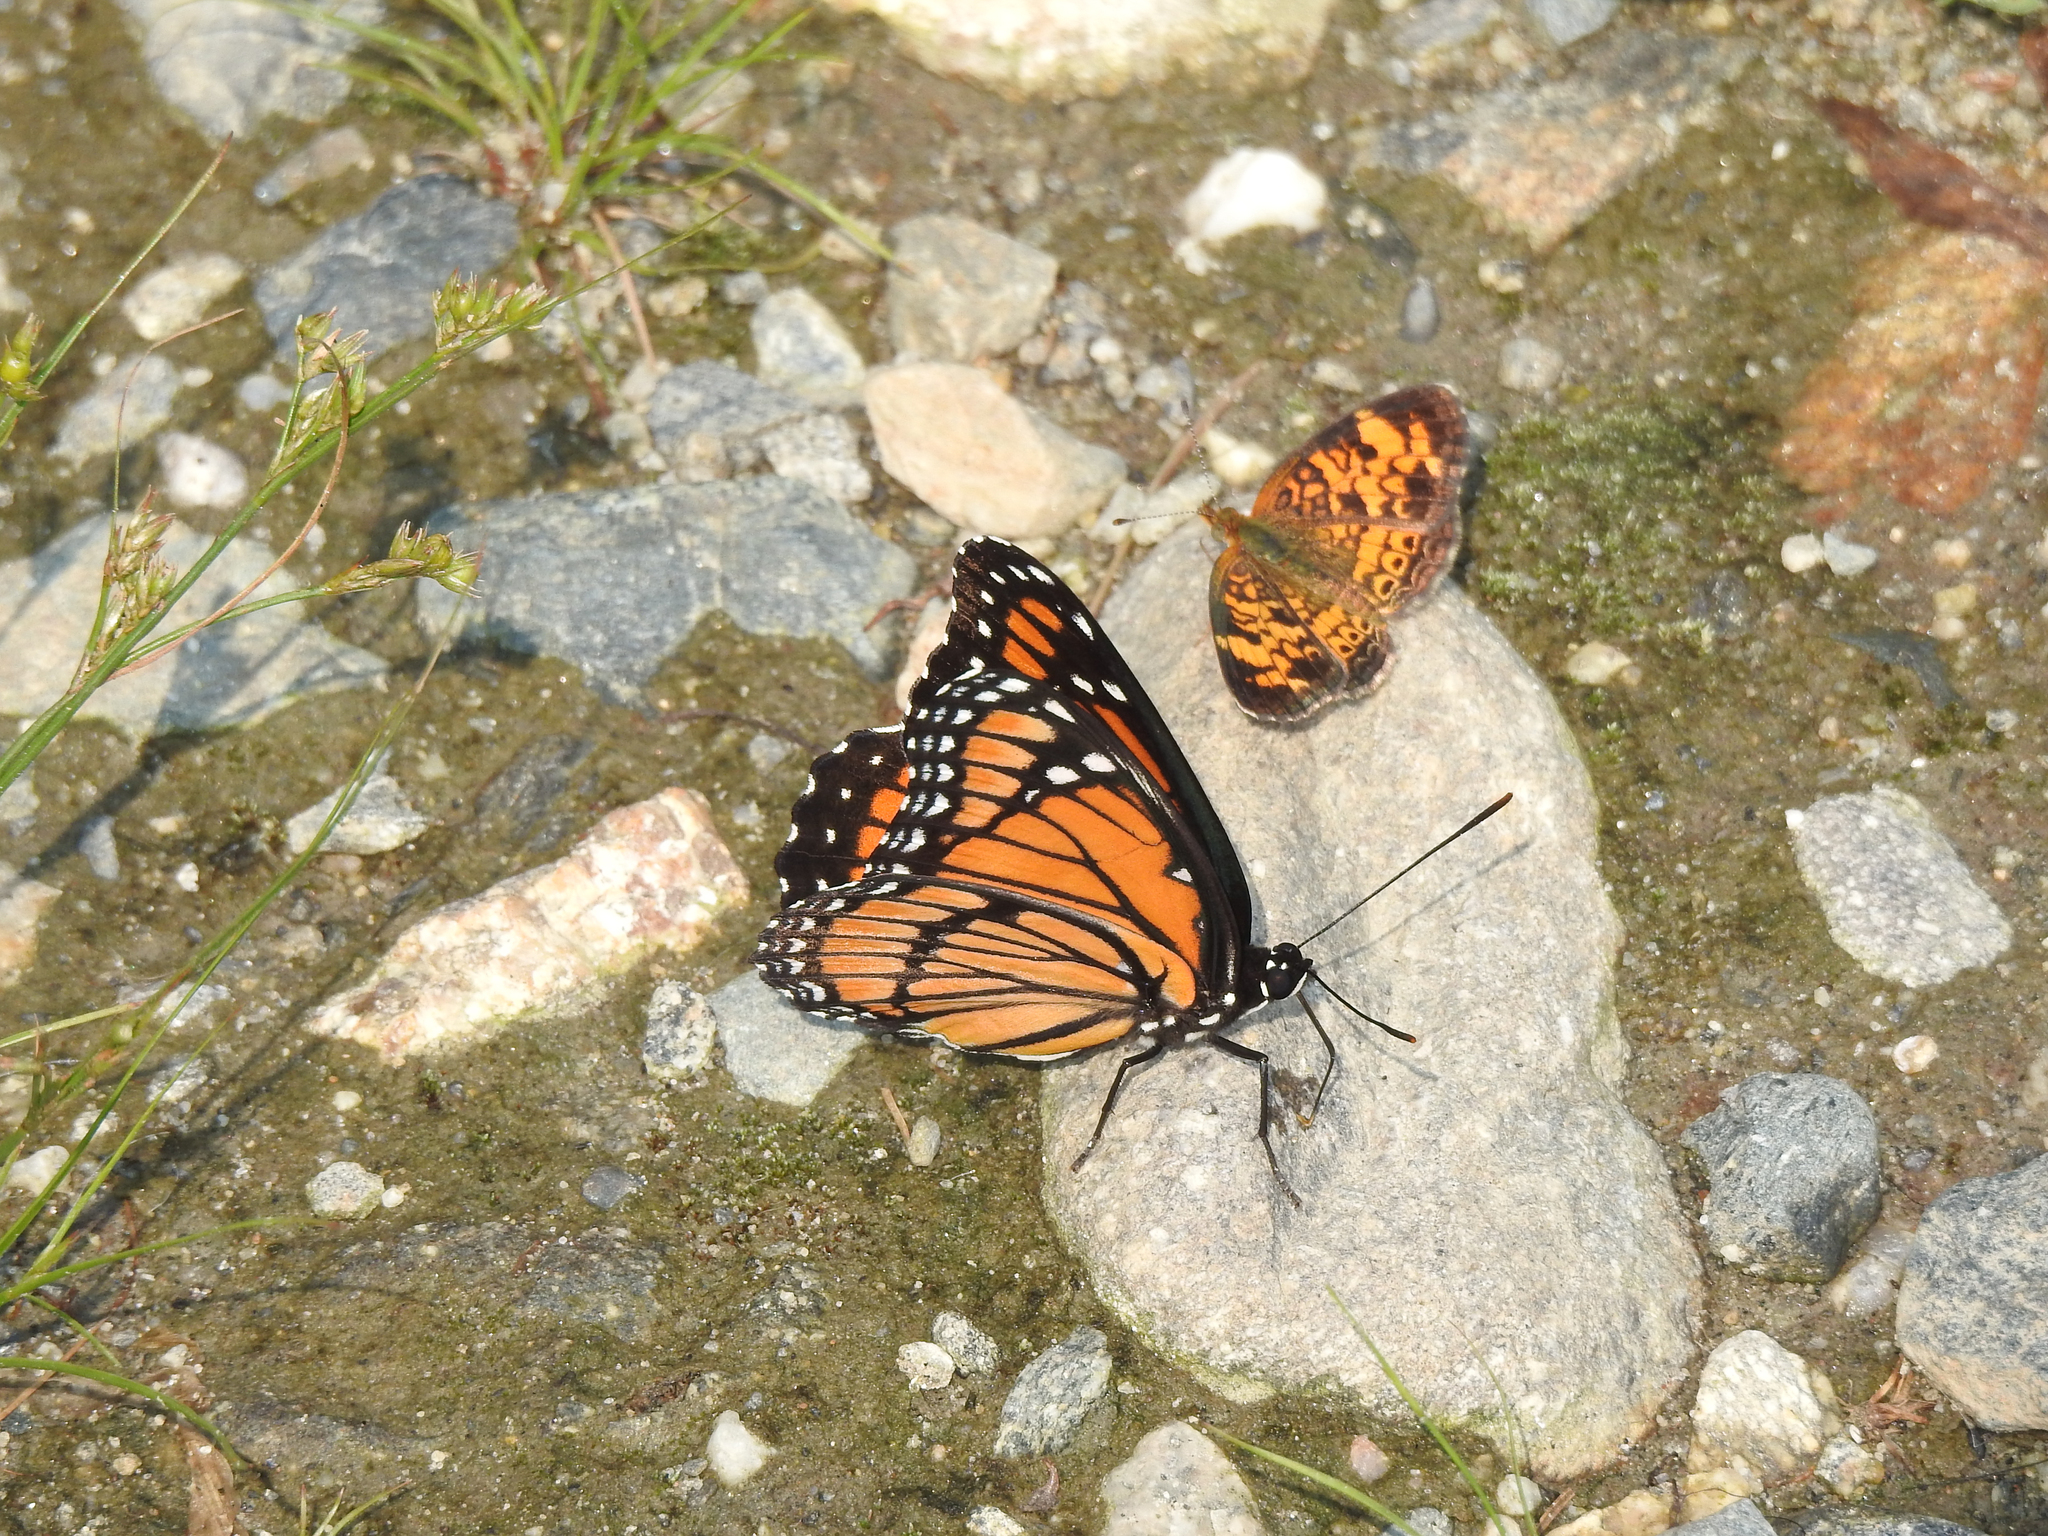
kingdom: Animalia
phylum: Arthropoda
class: Insecta
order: Lepidoptera
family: Nymphalidae
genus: Limenitis
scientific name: Limenitis archippus
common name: Viceroy
